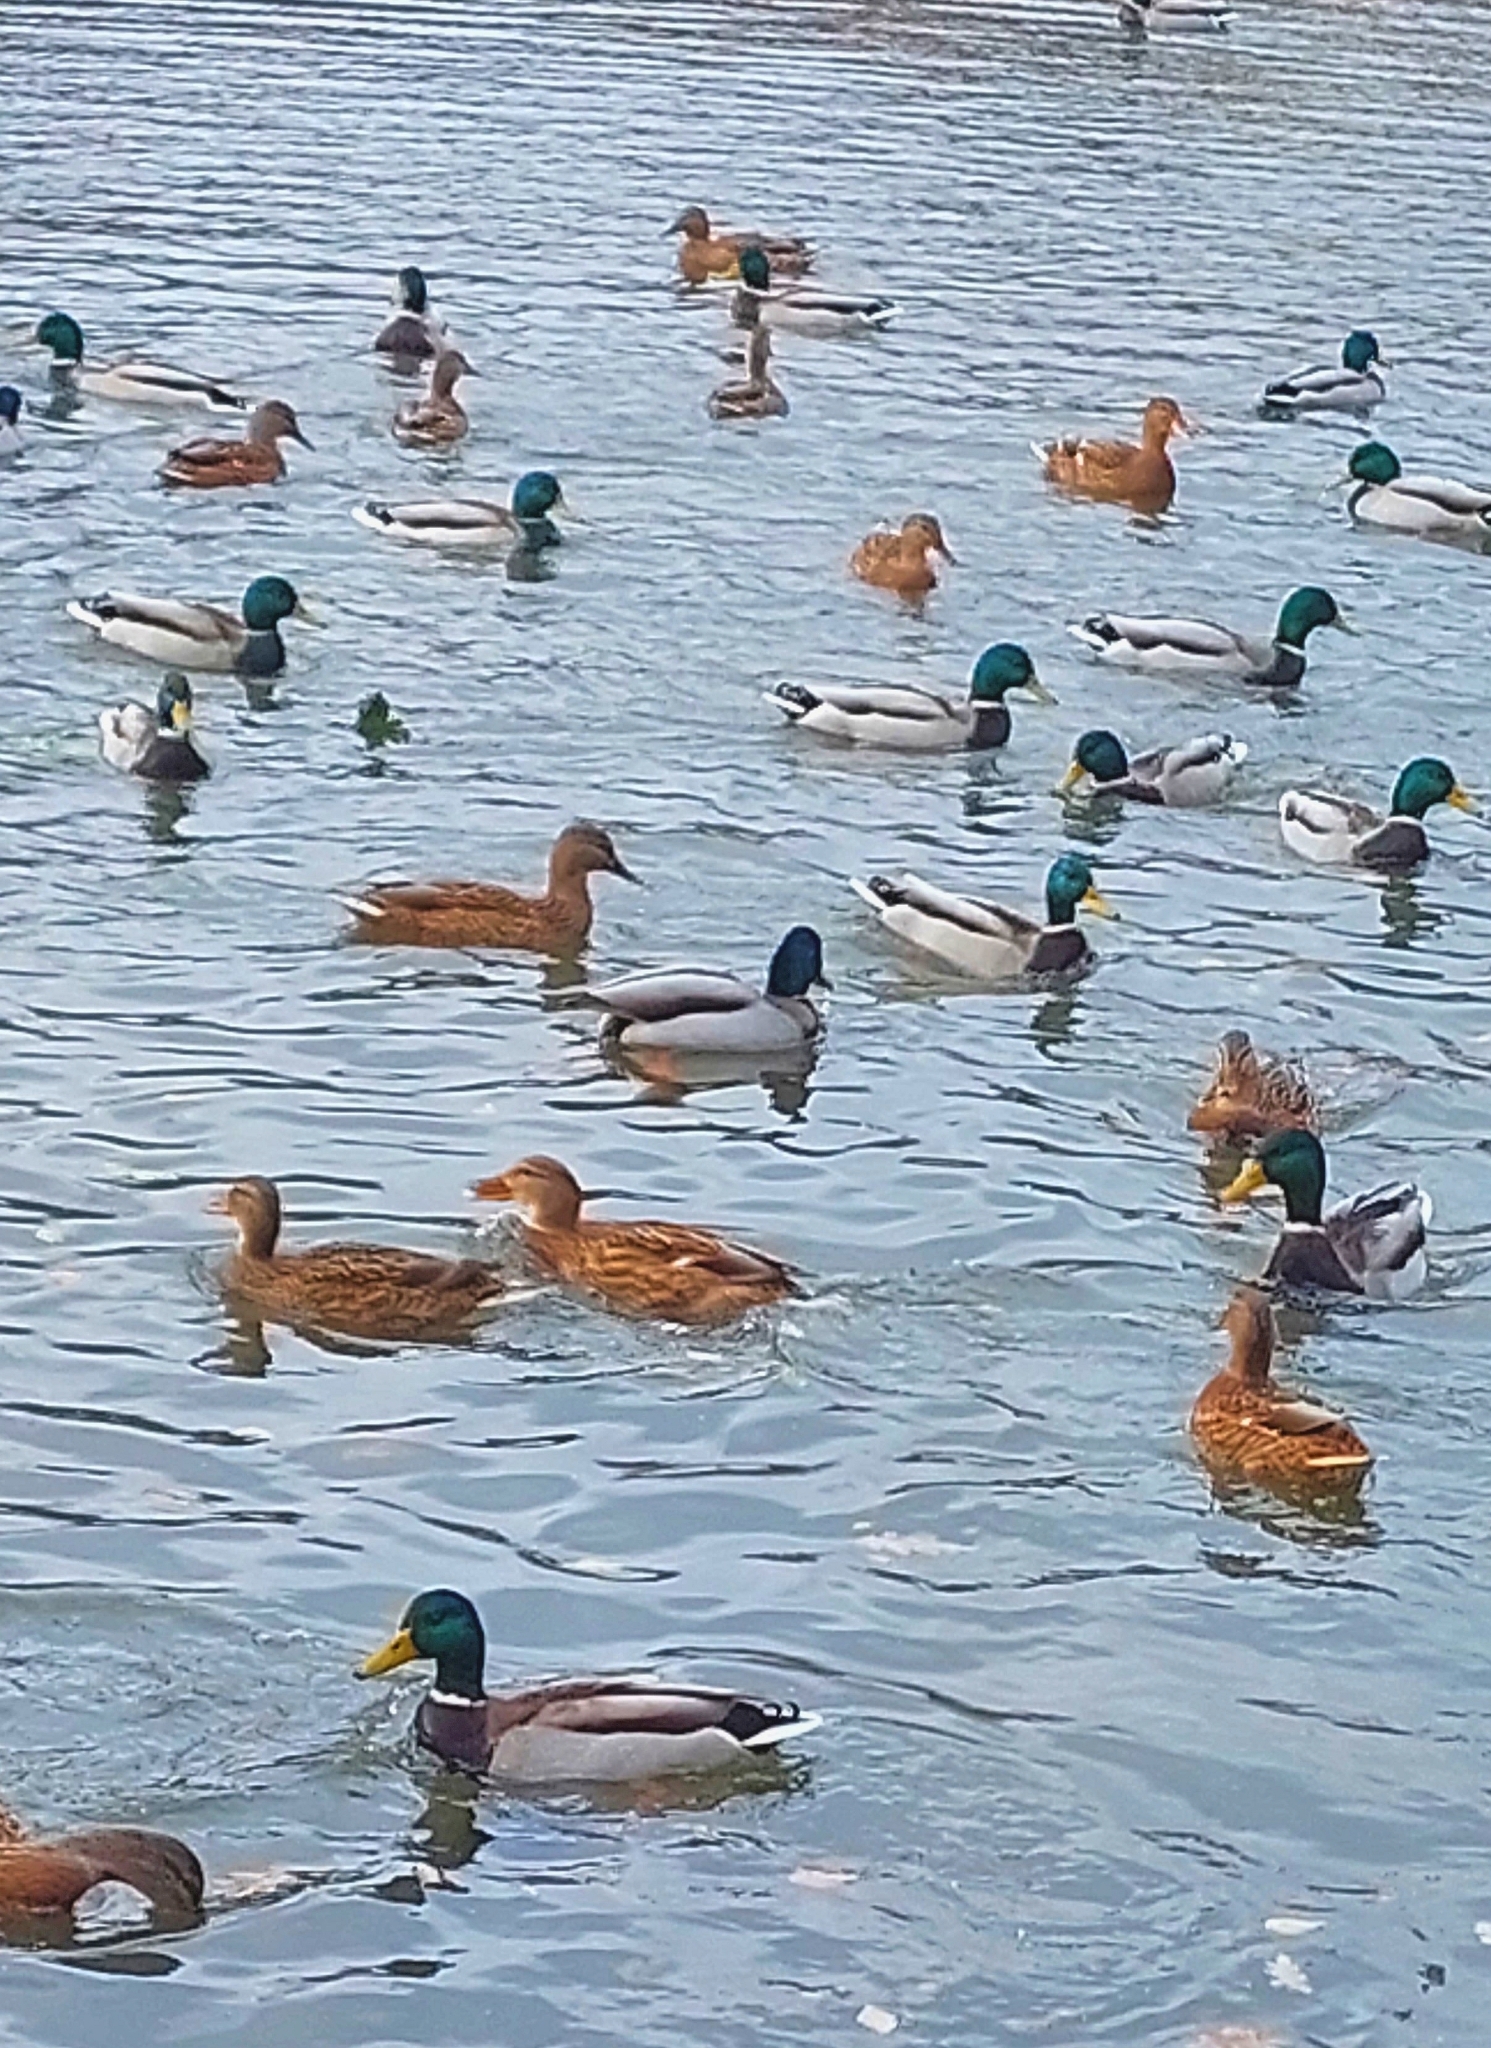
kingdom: Animalia
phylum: Chordata
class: Aves
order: Anseriformes
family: Anatidae
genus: Anas
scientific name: Anas platyrhynchos
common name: Mallard
